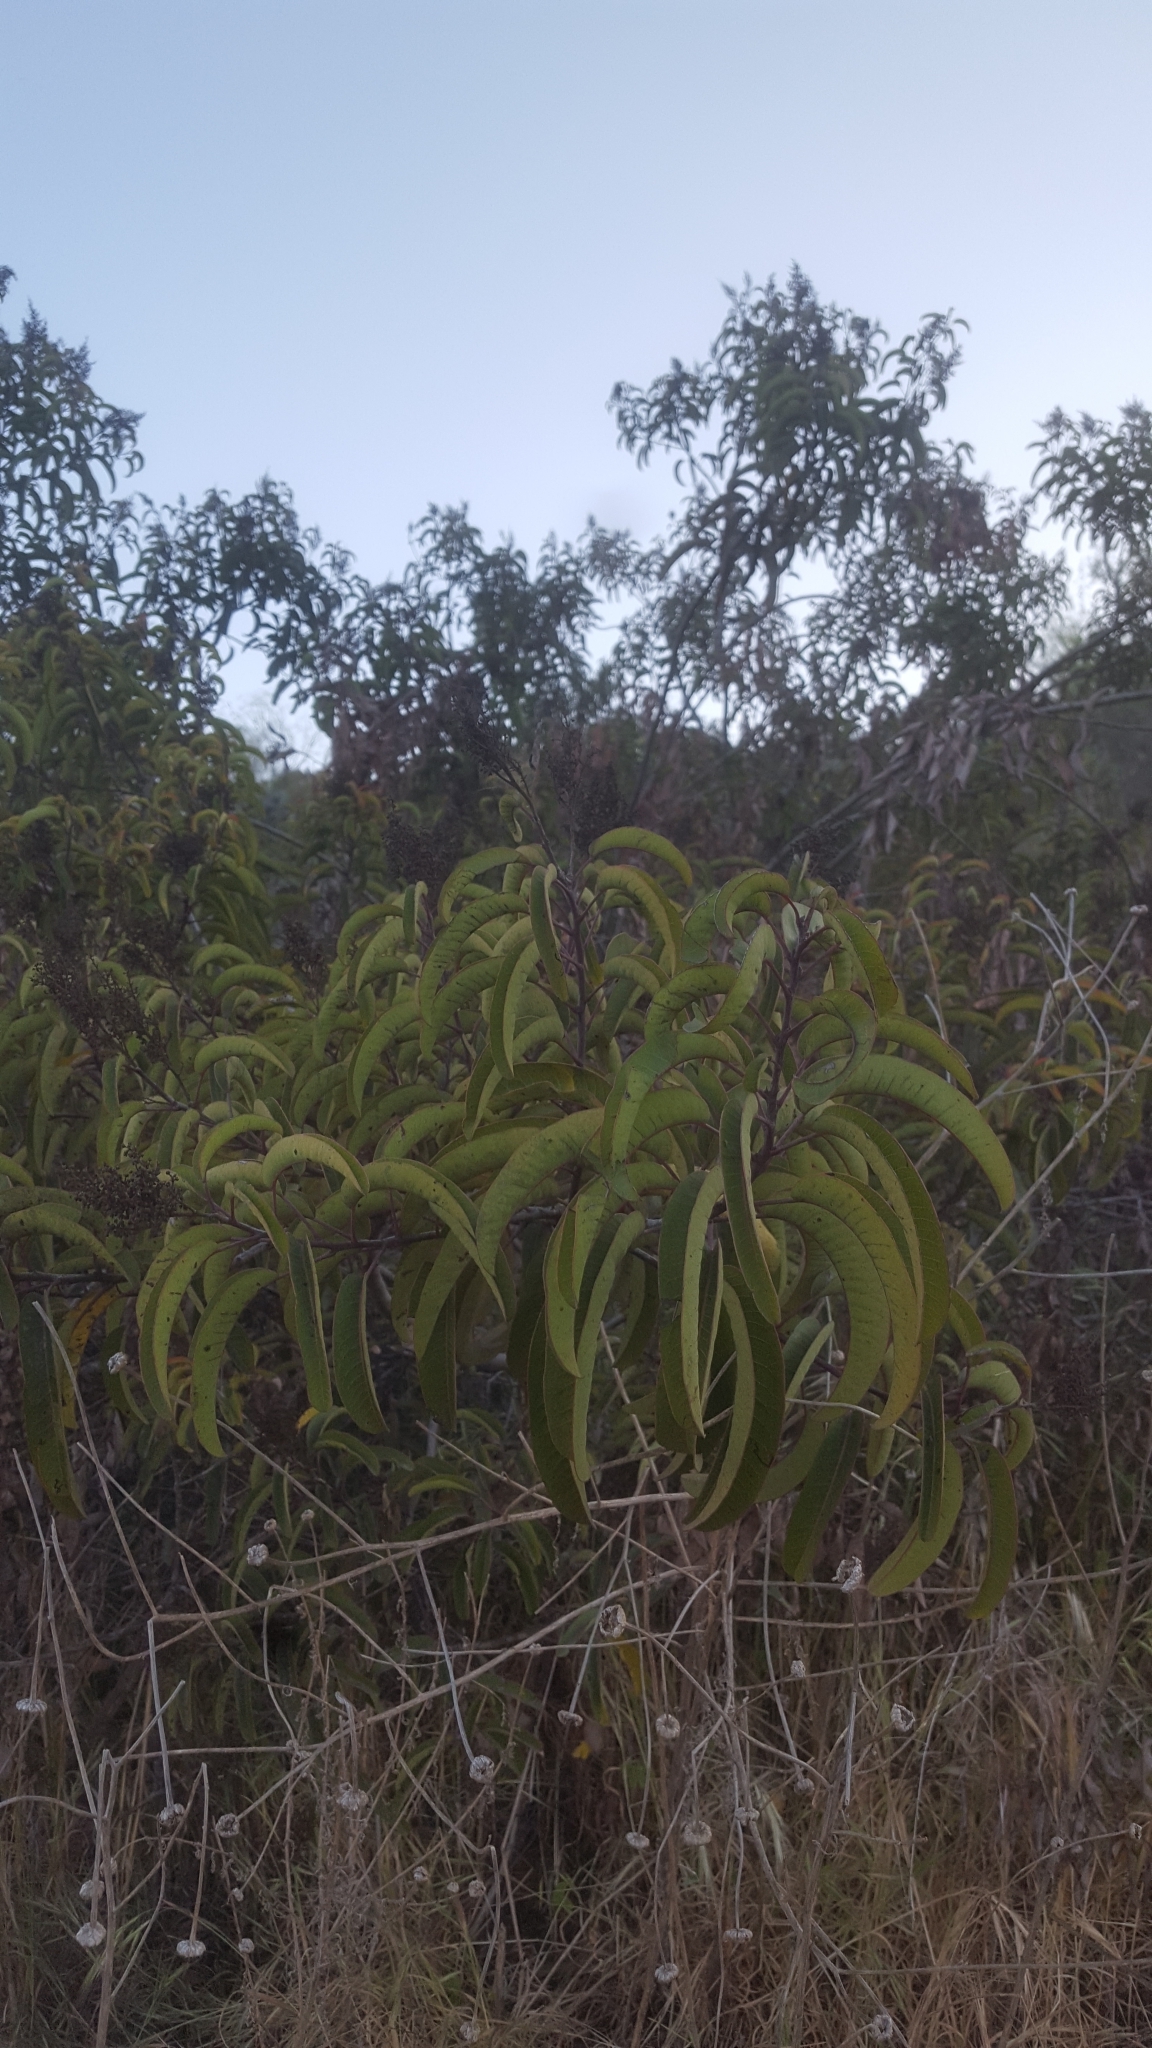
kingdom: Plantae
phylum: Tracheophyta
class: Magnoliopsida
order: Sapindales
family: Anacardiaceae
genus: Malosma
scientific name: Malosma laurina
